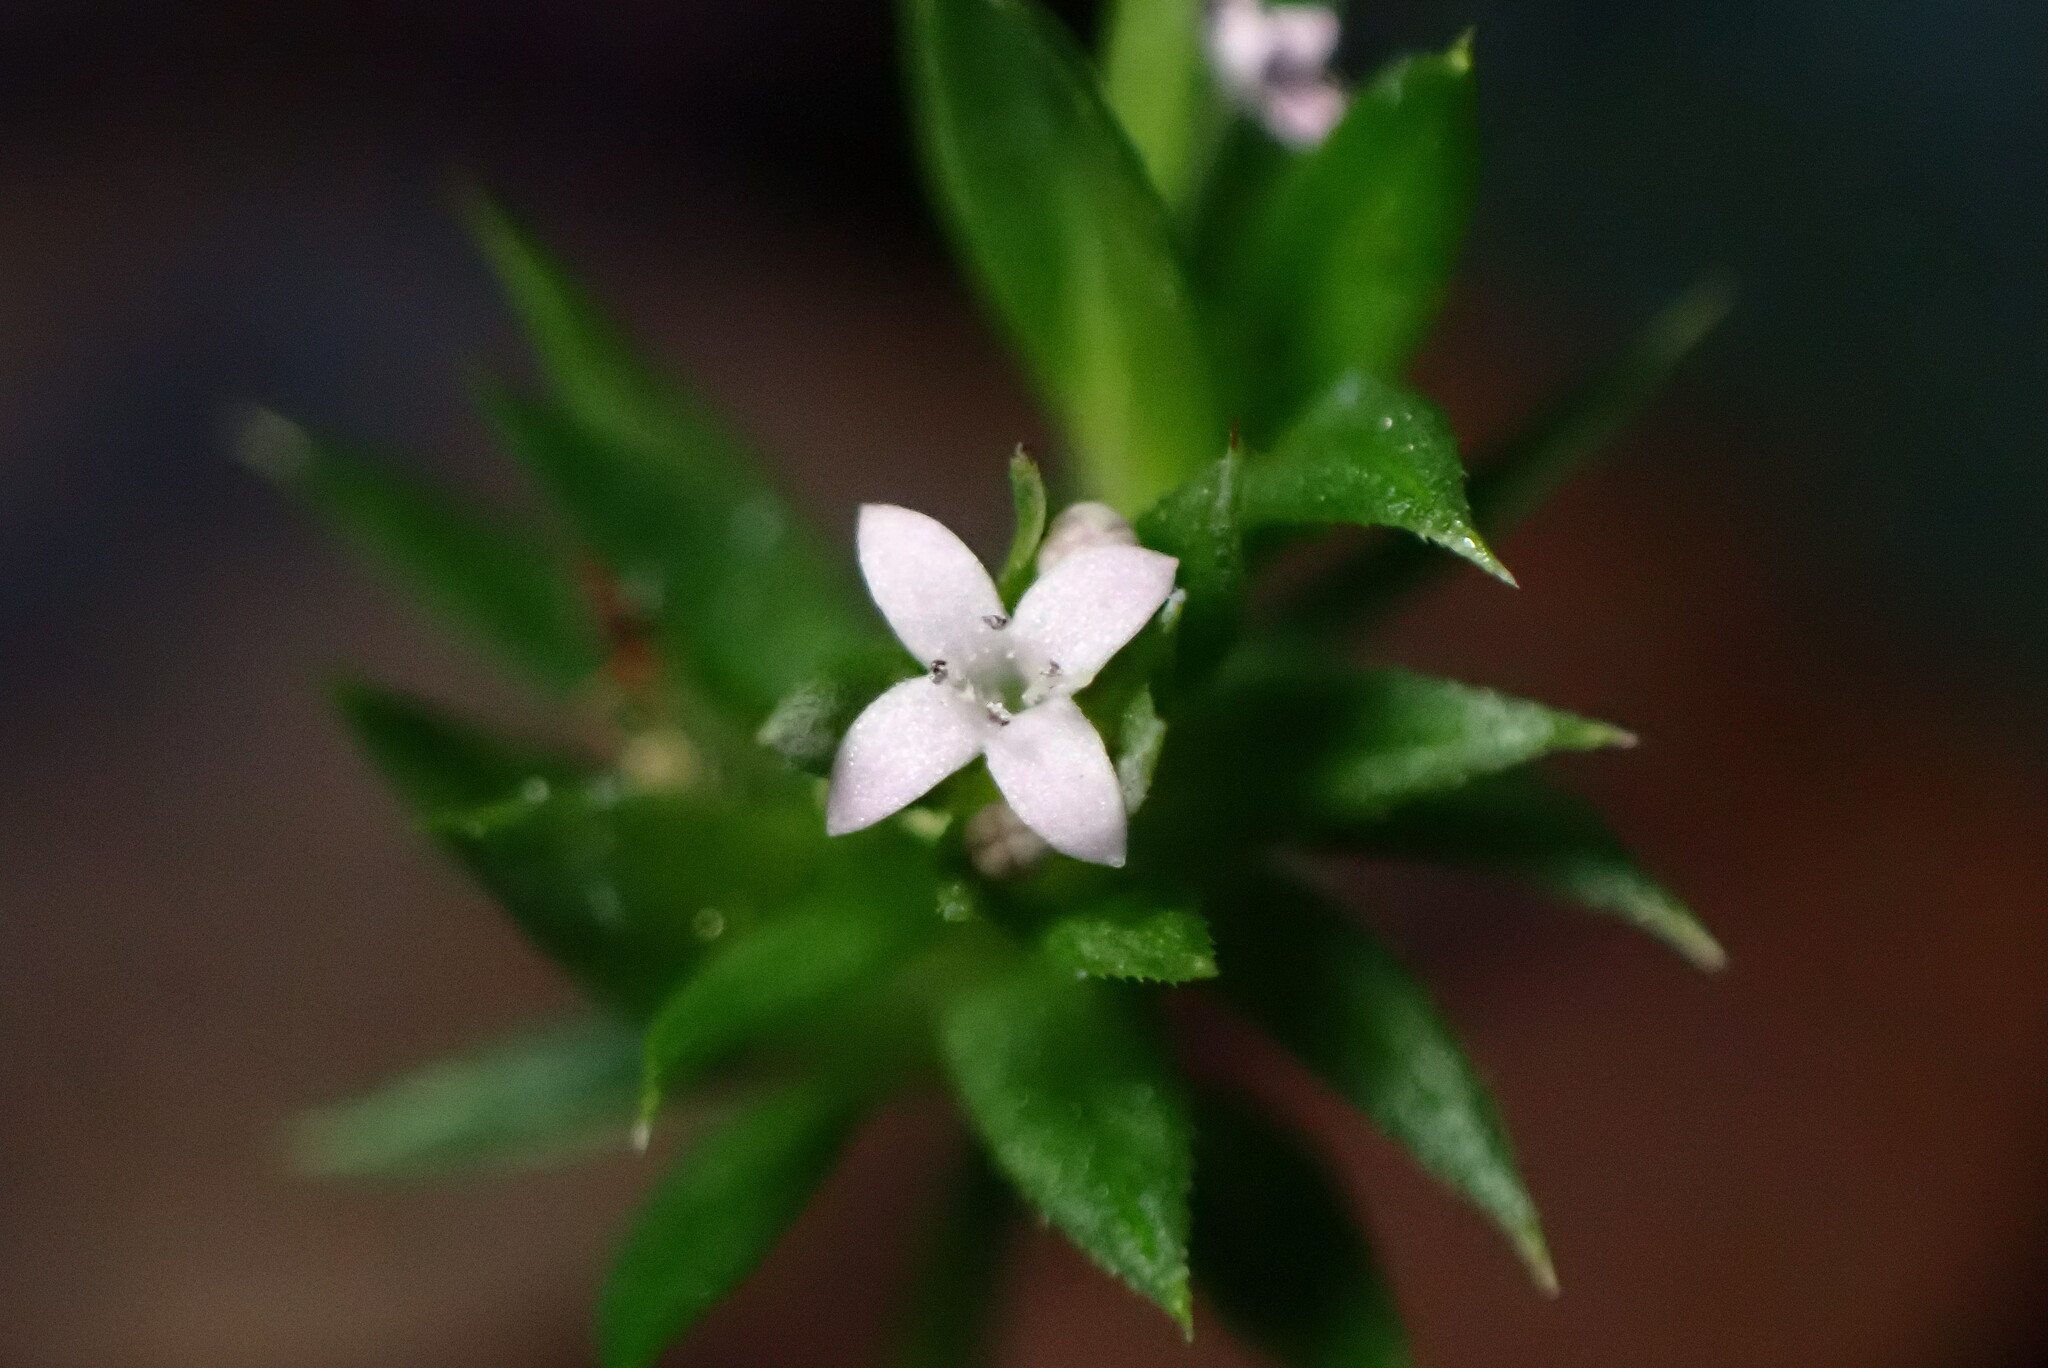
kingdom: Plantae
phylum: Tracheophyta
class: Magnoliopsida
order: Gentianales
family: Rubiaceae
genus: Sherardia
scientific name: Sherardia arvensis
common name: Field madder
